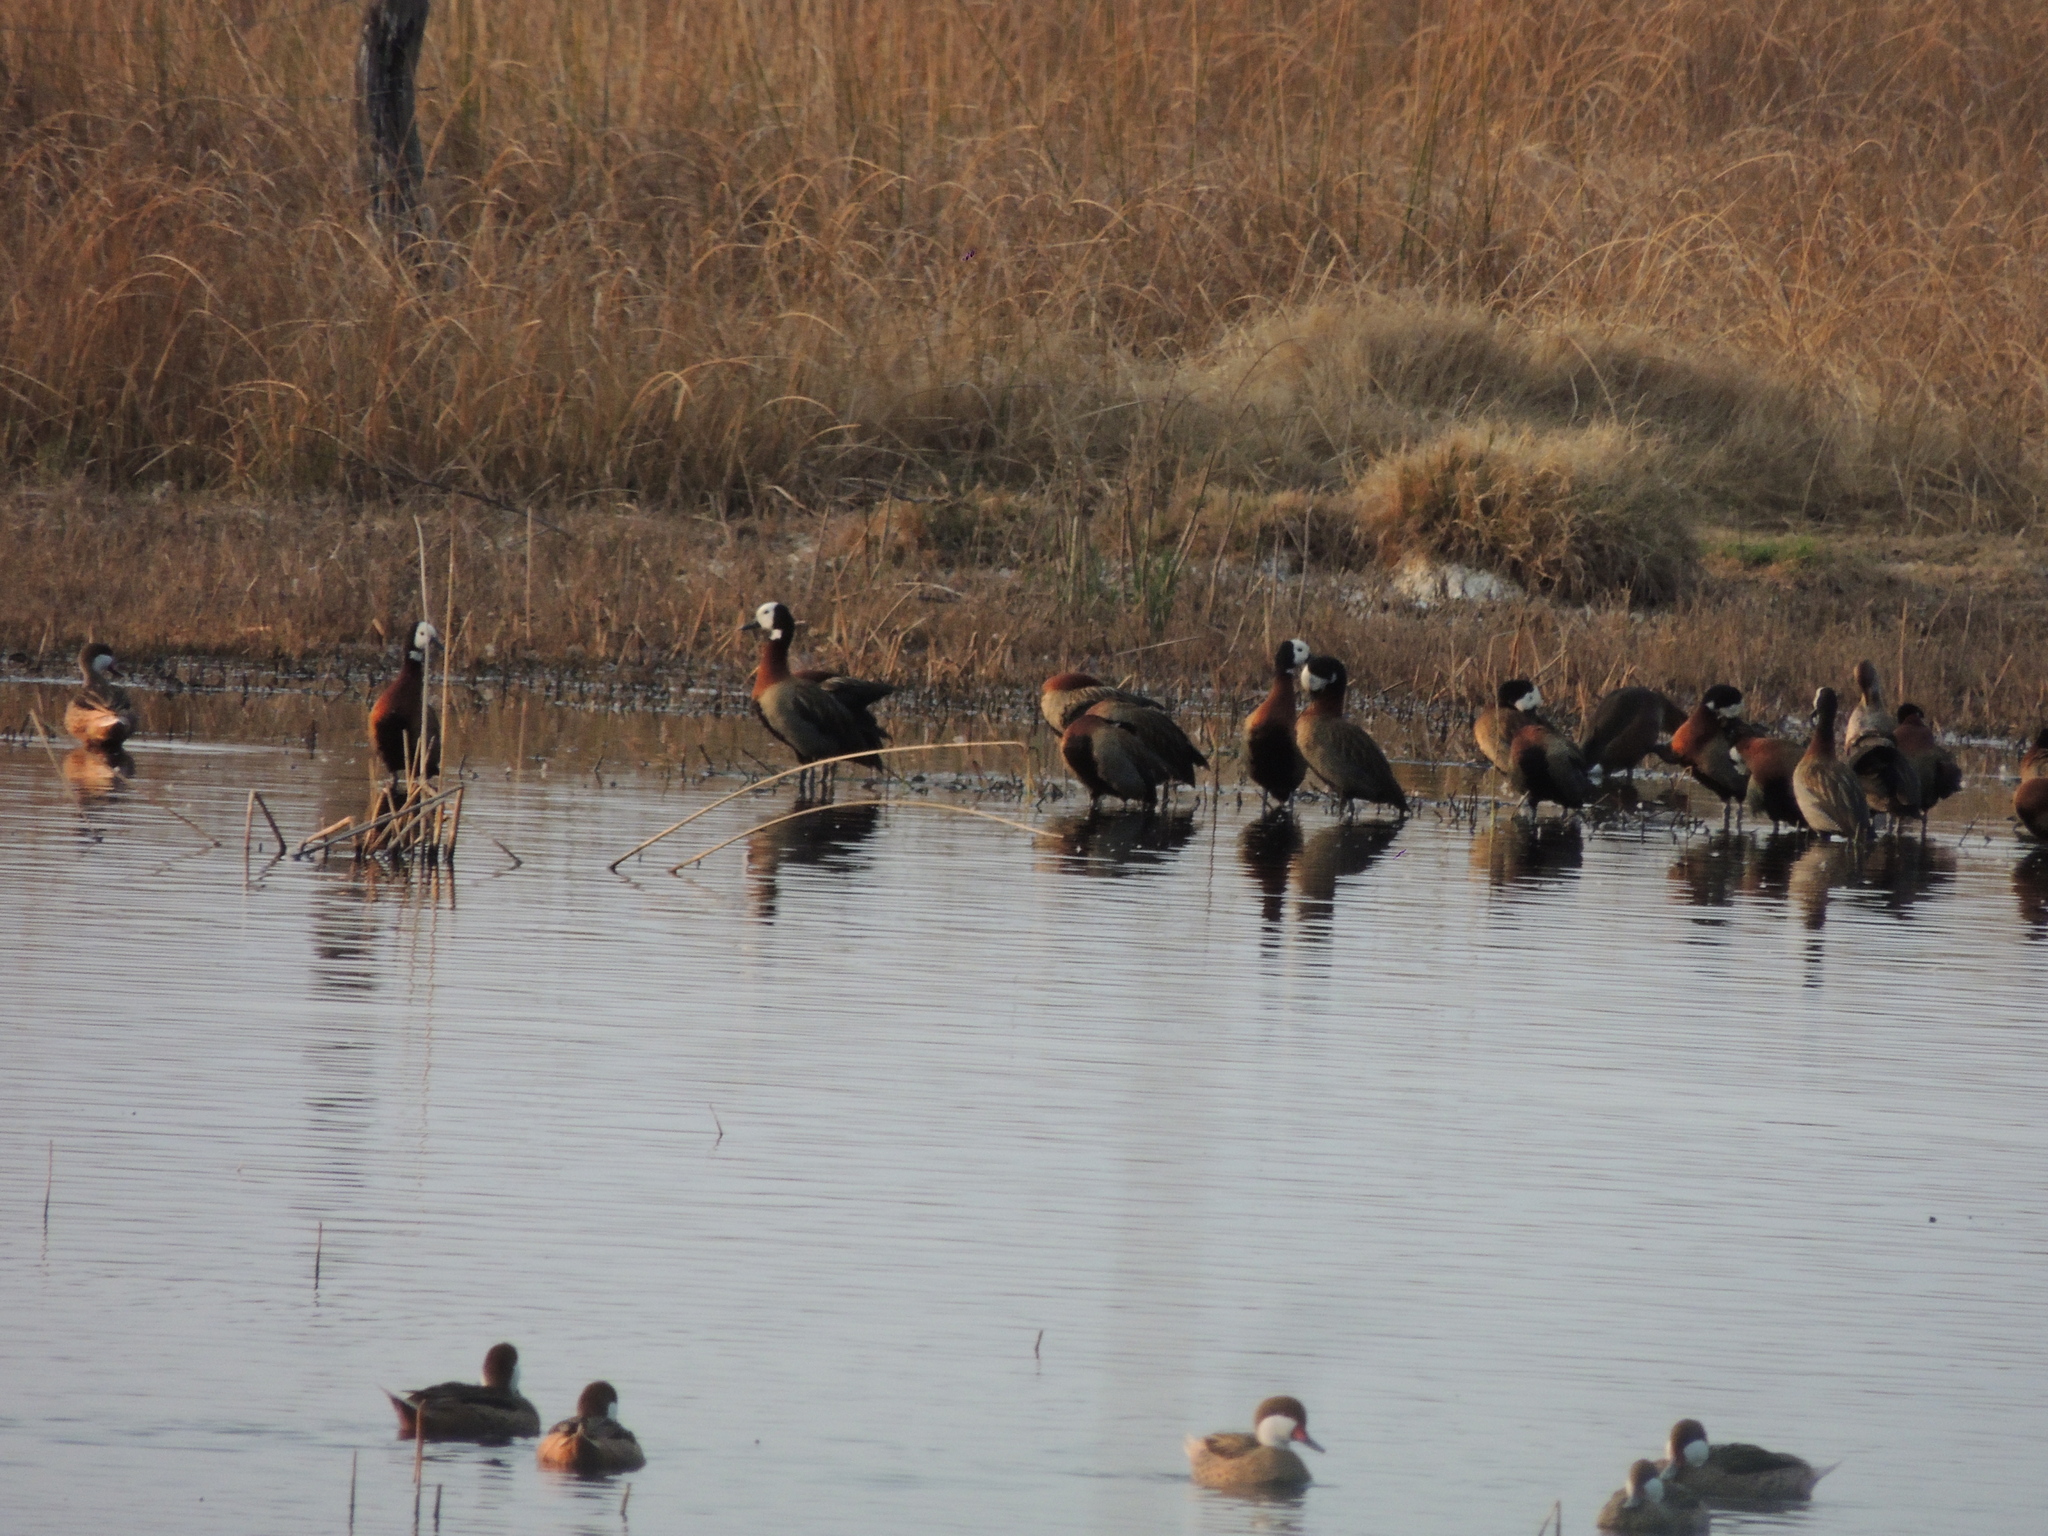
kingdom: Animalia
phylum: Chordata
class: Aves
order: Anseriformes
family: Anatidae
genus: Dendrocygna
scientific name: Dendrocygna viduata
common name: White-faced whistling duck
